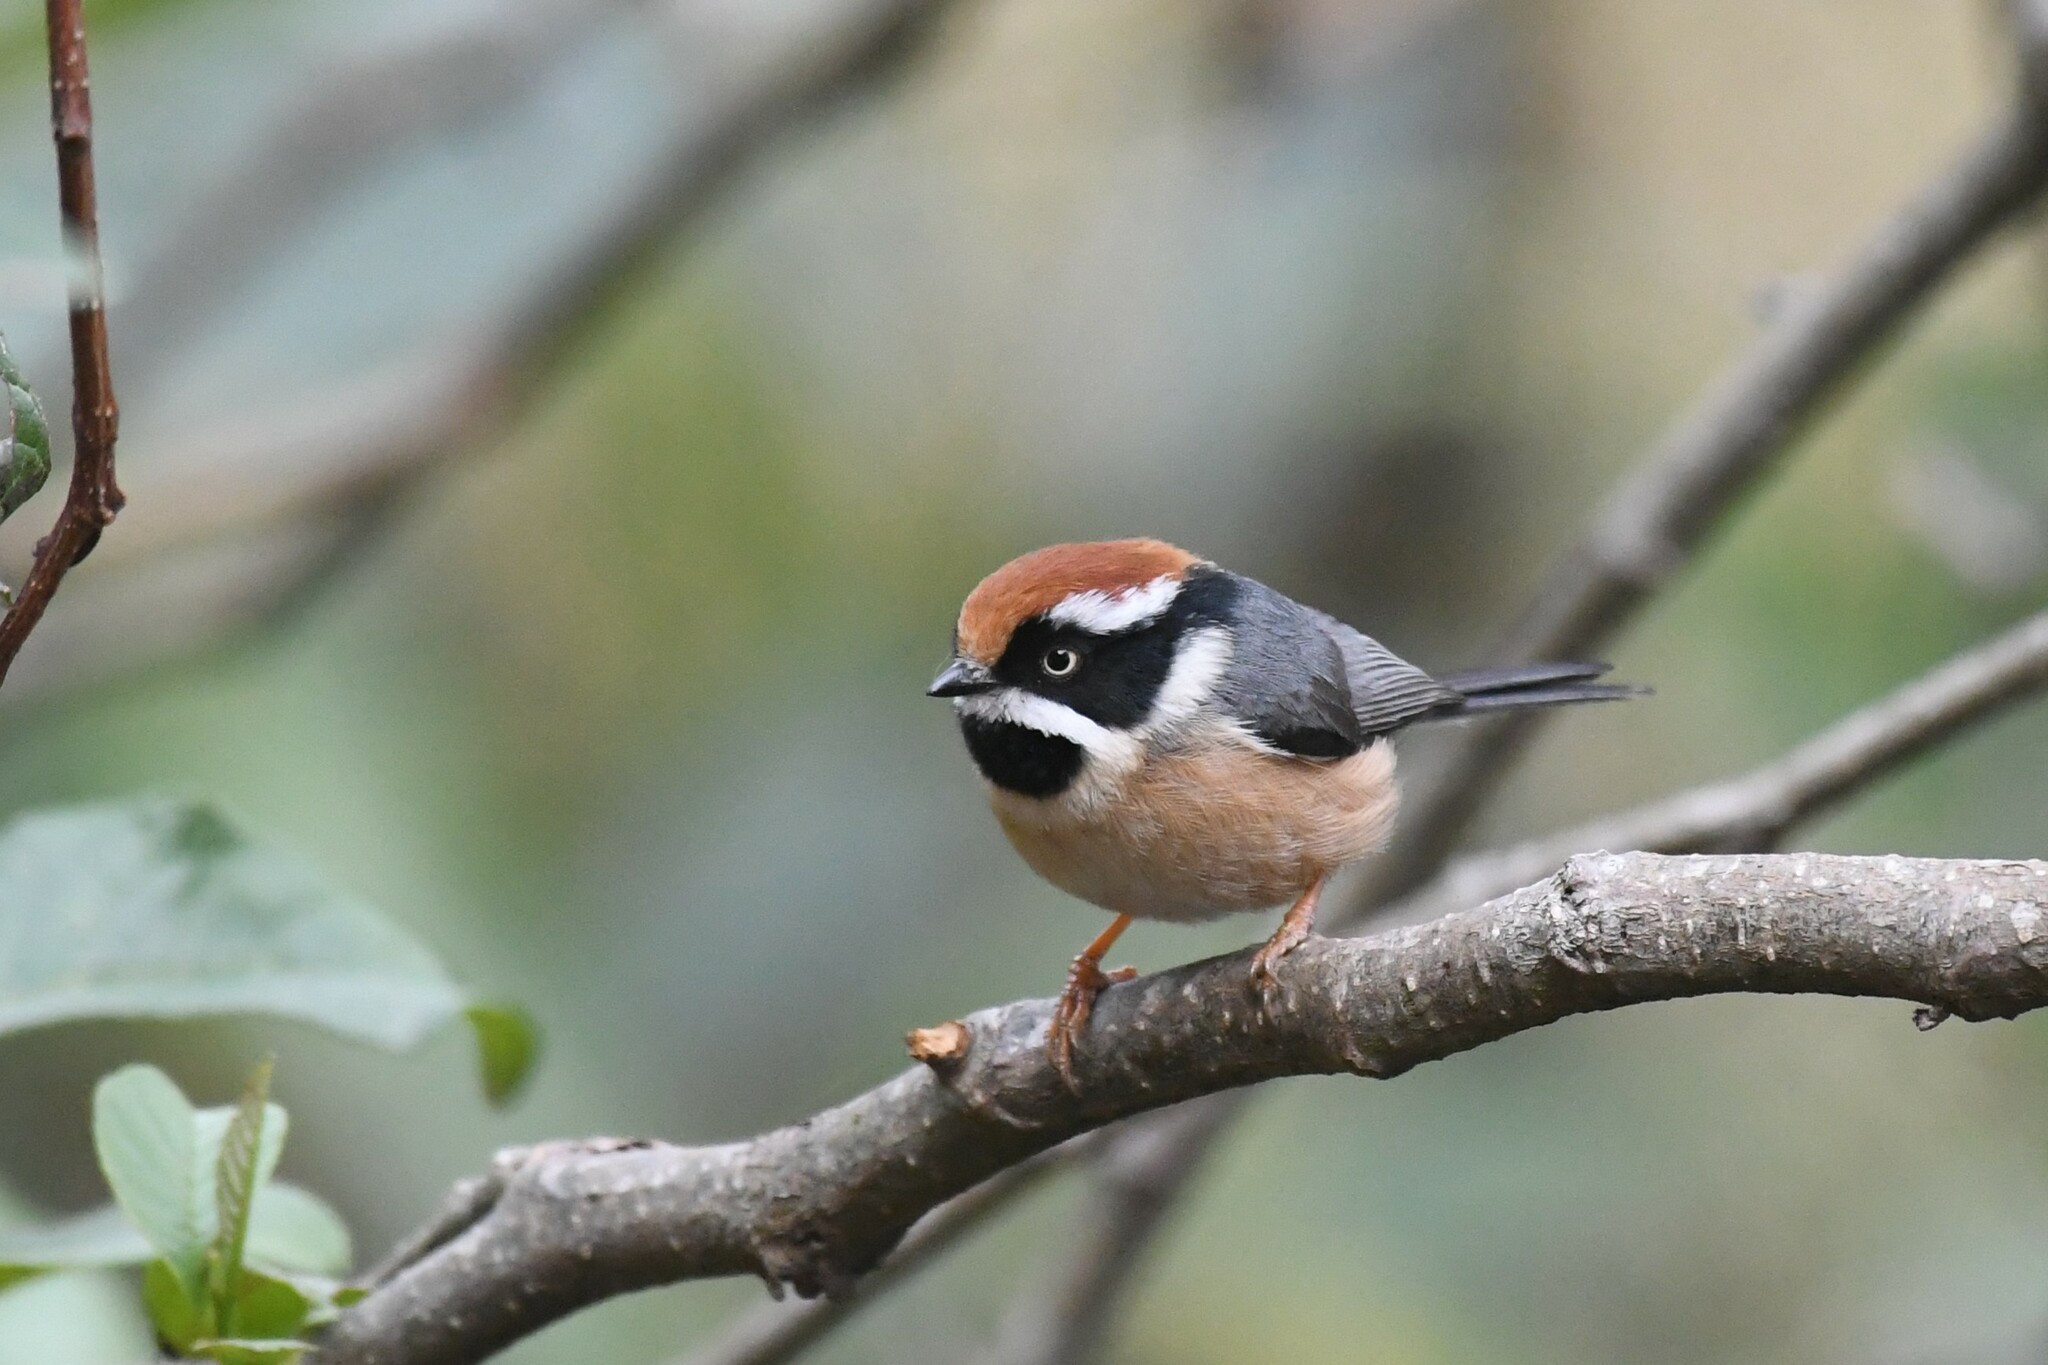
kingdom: Animalia
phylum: Chordata
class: Aves
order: Passeriformes
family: Aegithalidae
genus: Aegithalos
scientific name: Aegithalos concinnus
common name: Black-throated bushtit
